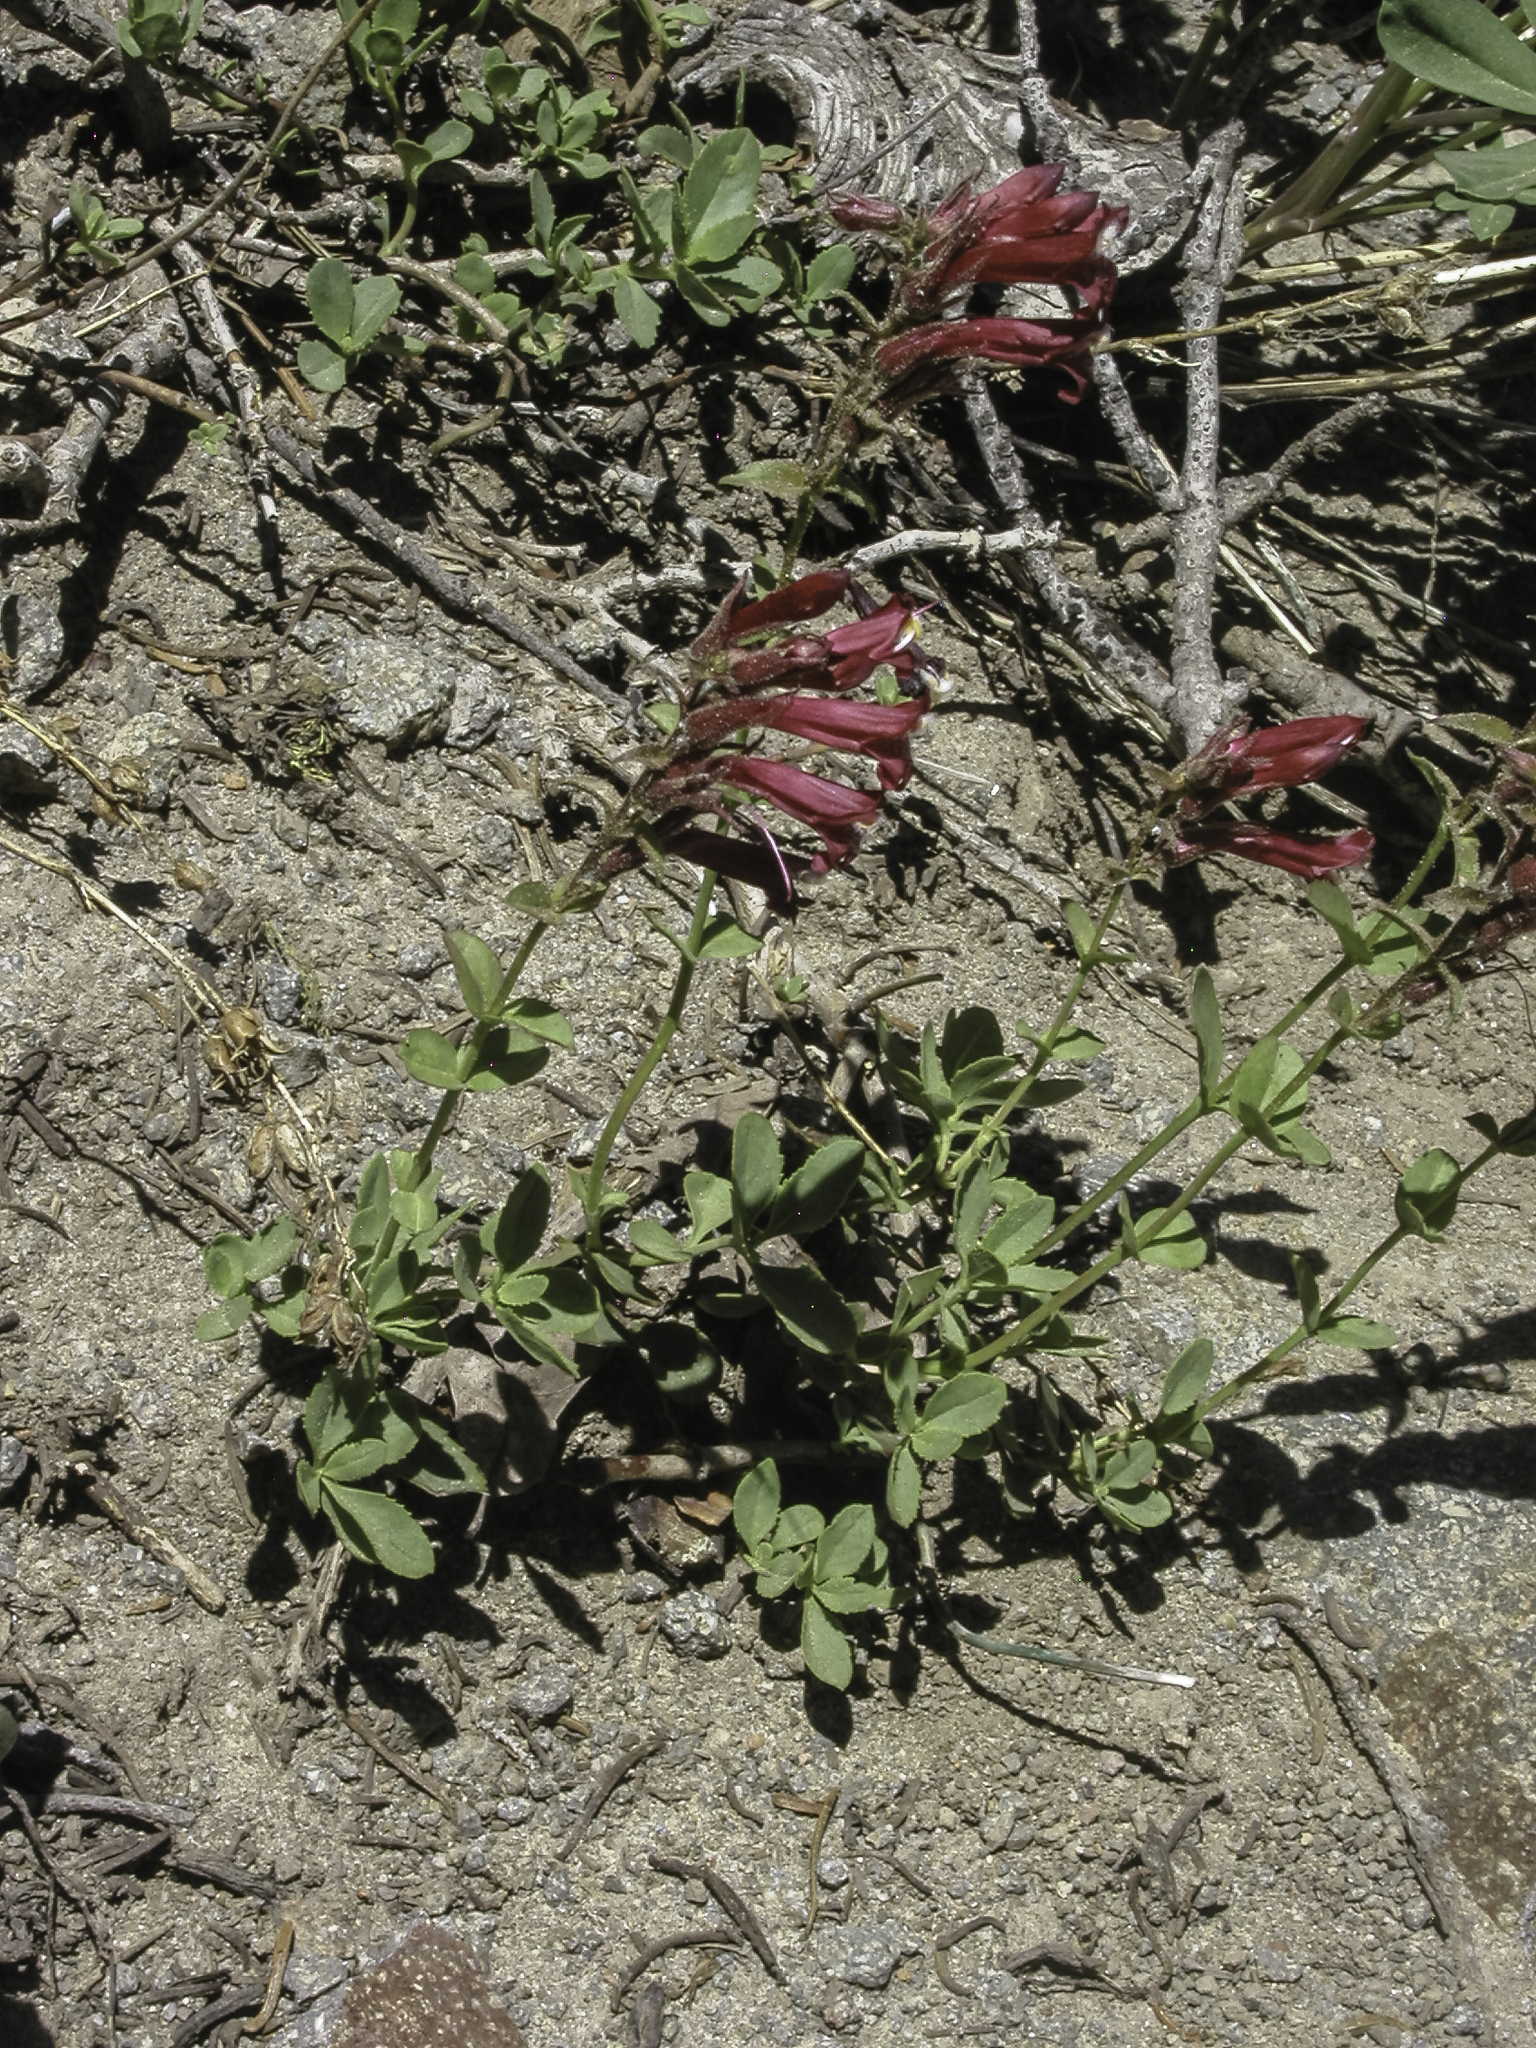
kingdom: Plantae
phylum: Tracheophyta
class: Magnoliopsida
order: Lamiales
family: Plantaginaceae
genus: Penstemon
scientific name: Penstemon newberryi
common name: Mountain-pride
